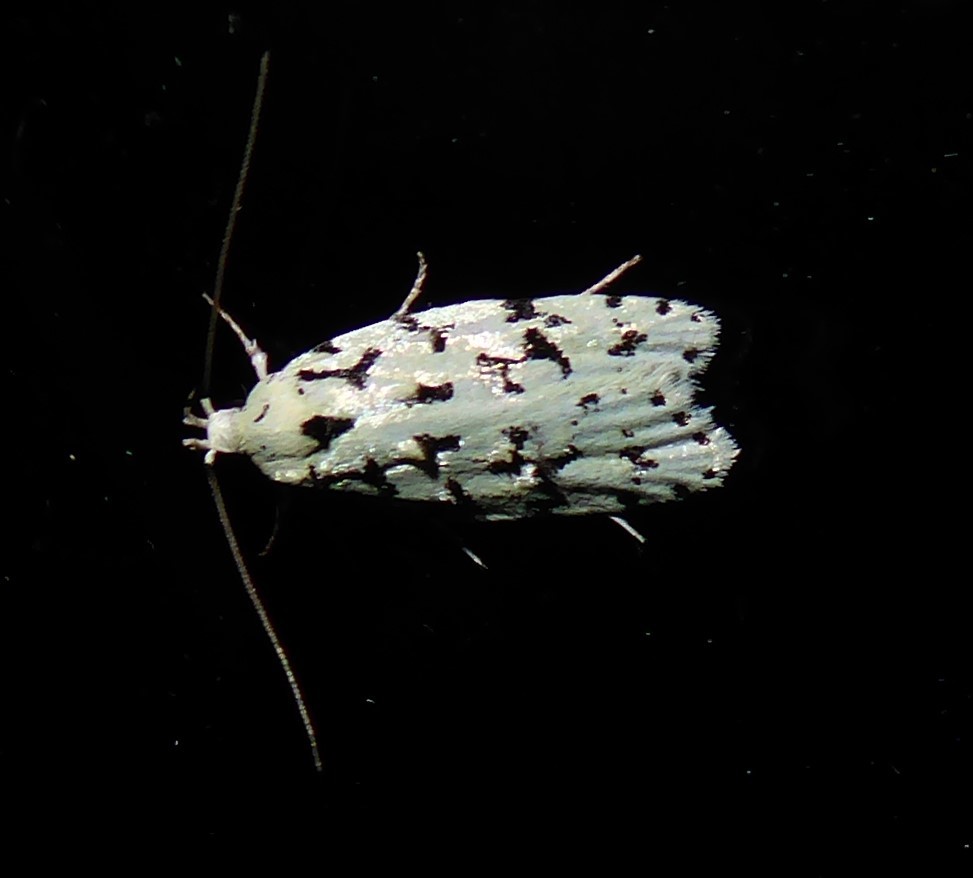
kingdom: Animalia
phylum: Arthropoda
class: Insecta
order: Lepidoptera
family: Oecophoridae
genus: Izatha
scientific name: Izatha huttoni
